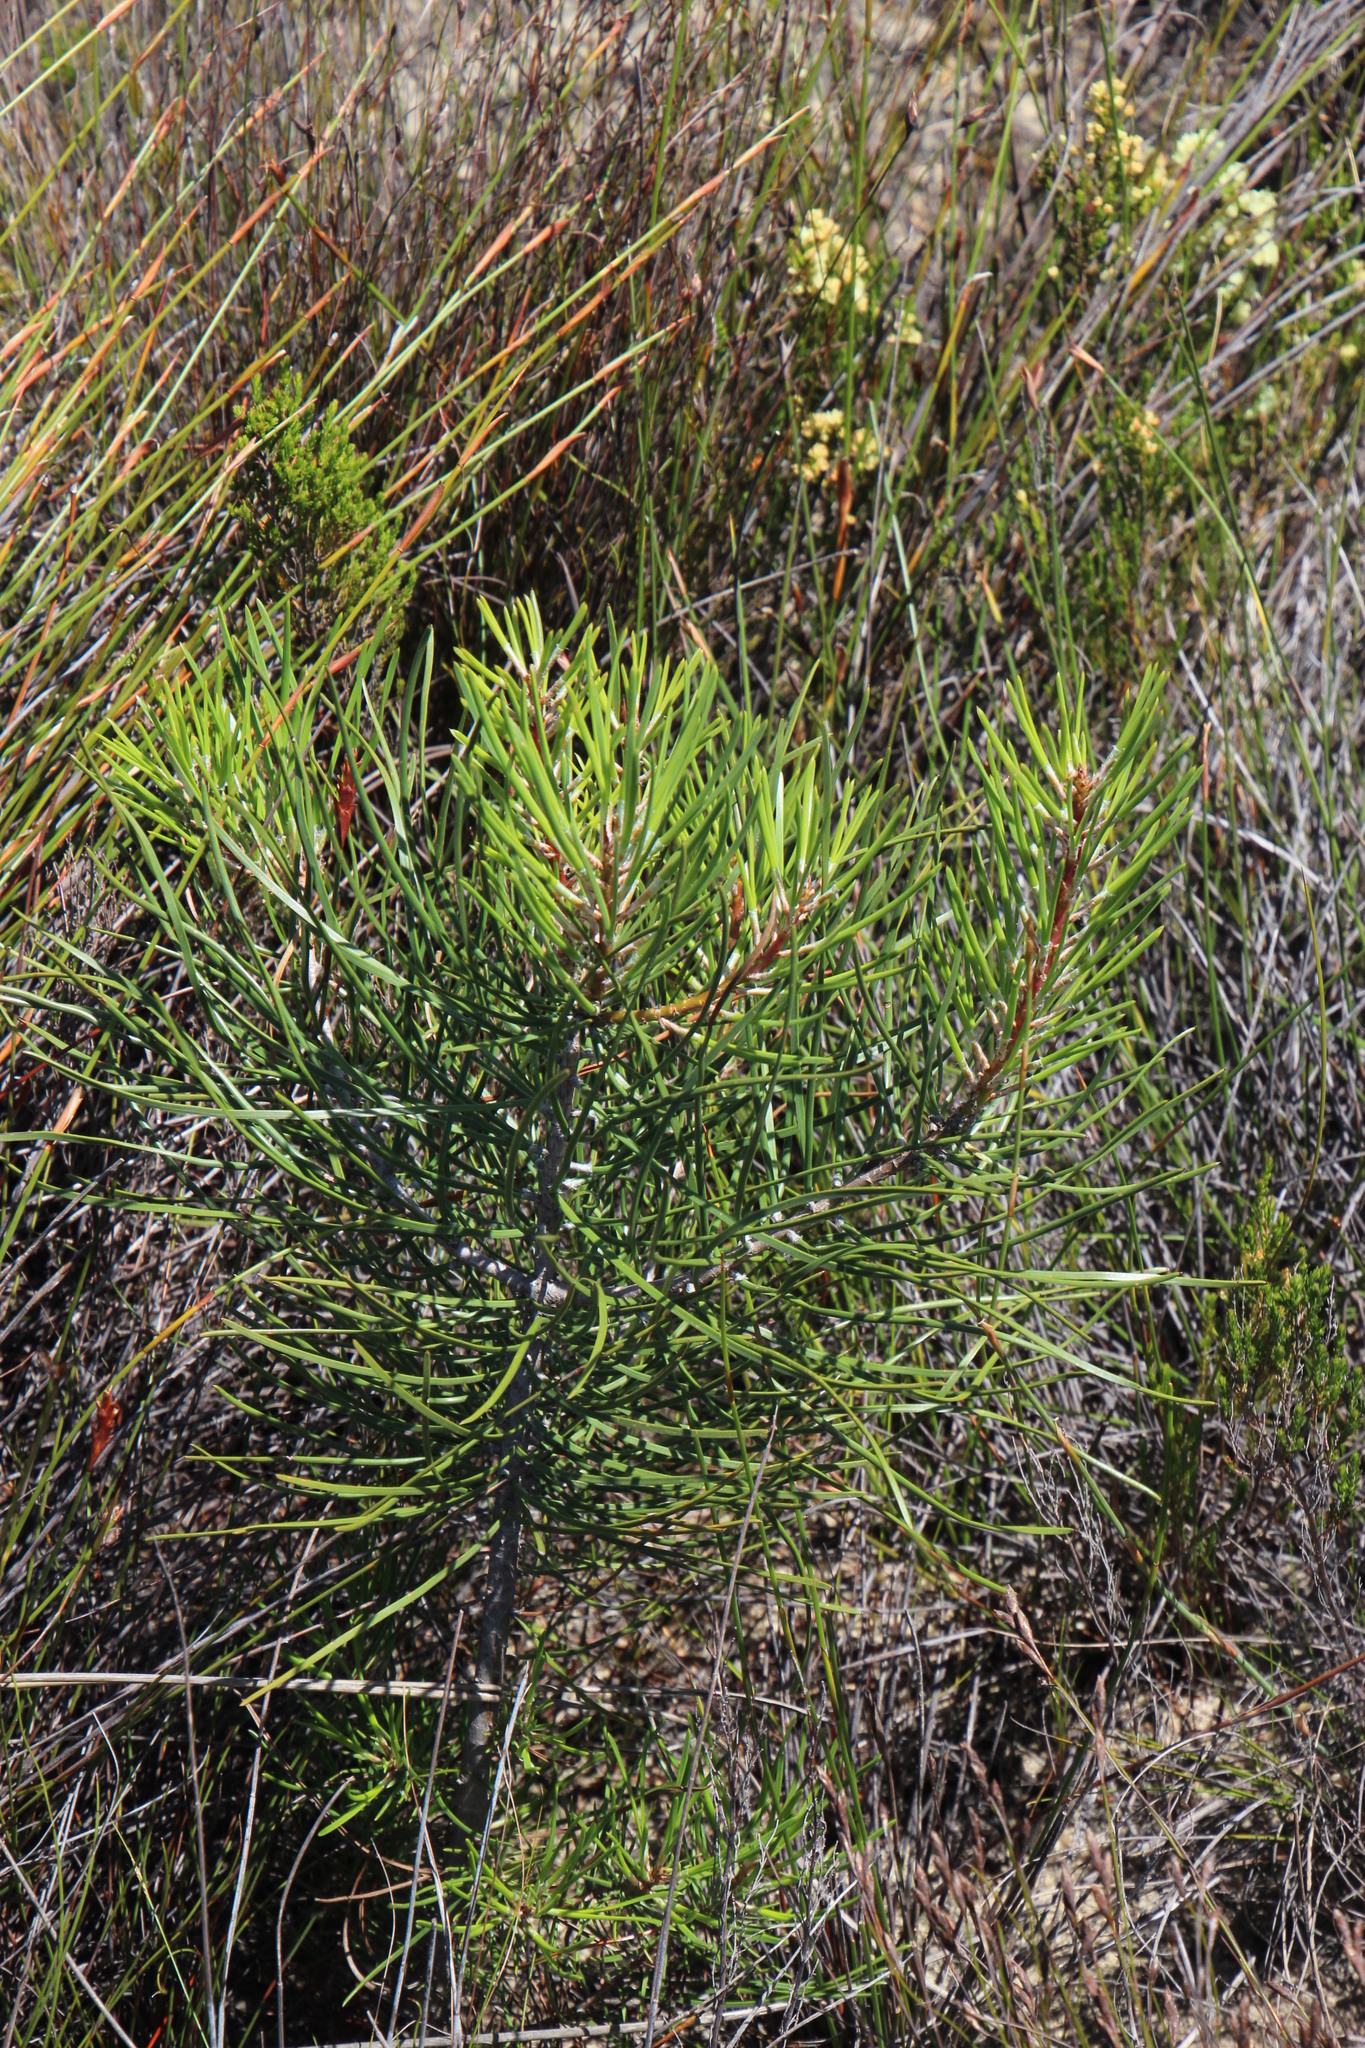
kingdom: Plantae
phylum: Tracheophyta
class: Pinopsida
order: Pinales
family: Pinaceae
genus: Pinus
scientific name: Pinus pinaster
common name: Maritime pine
